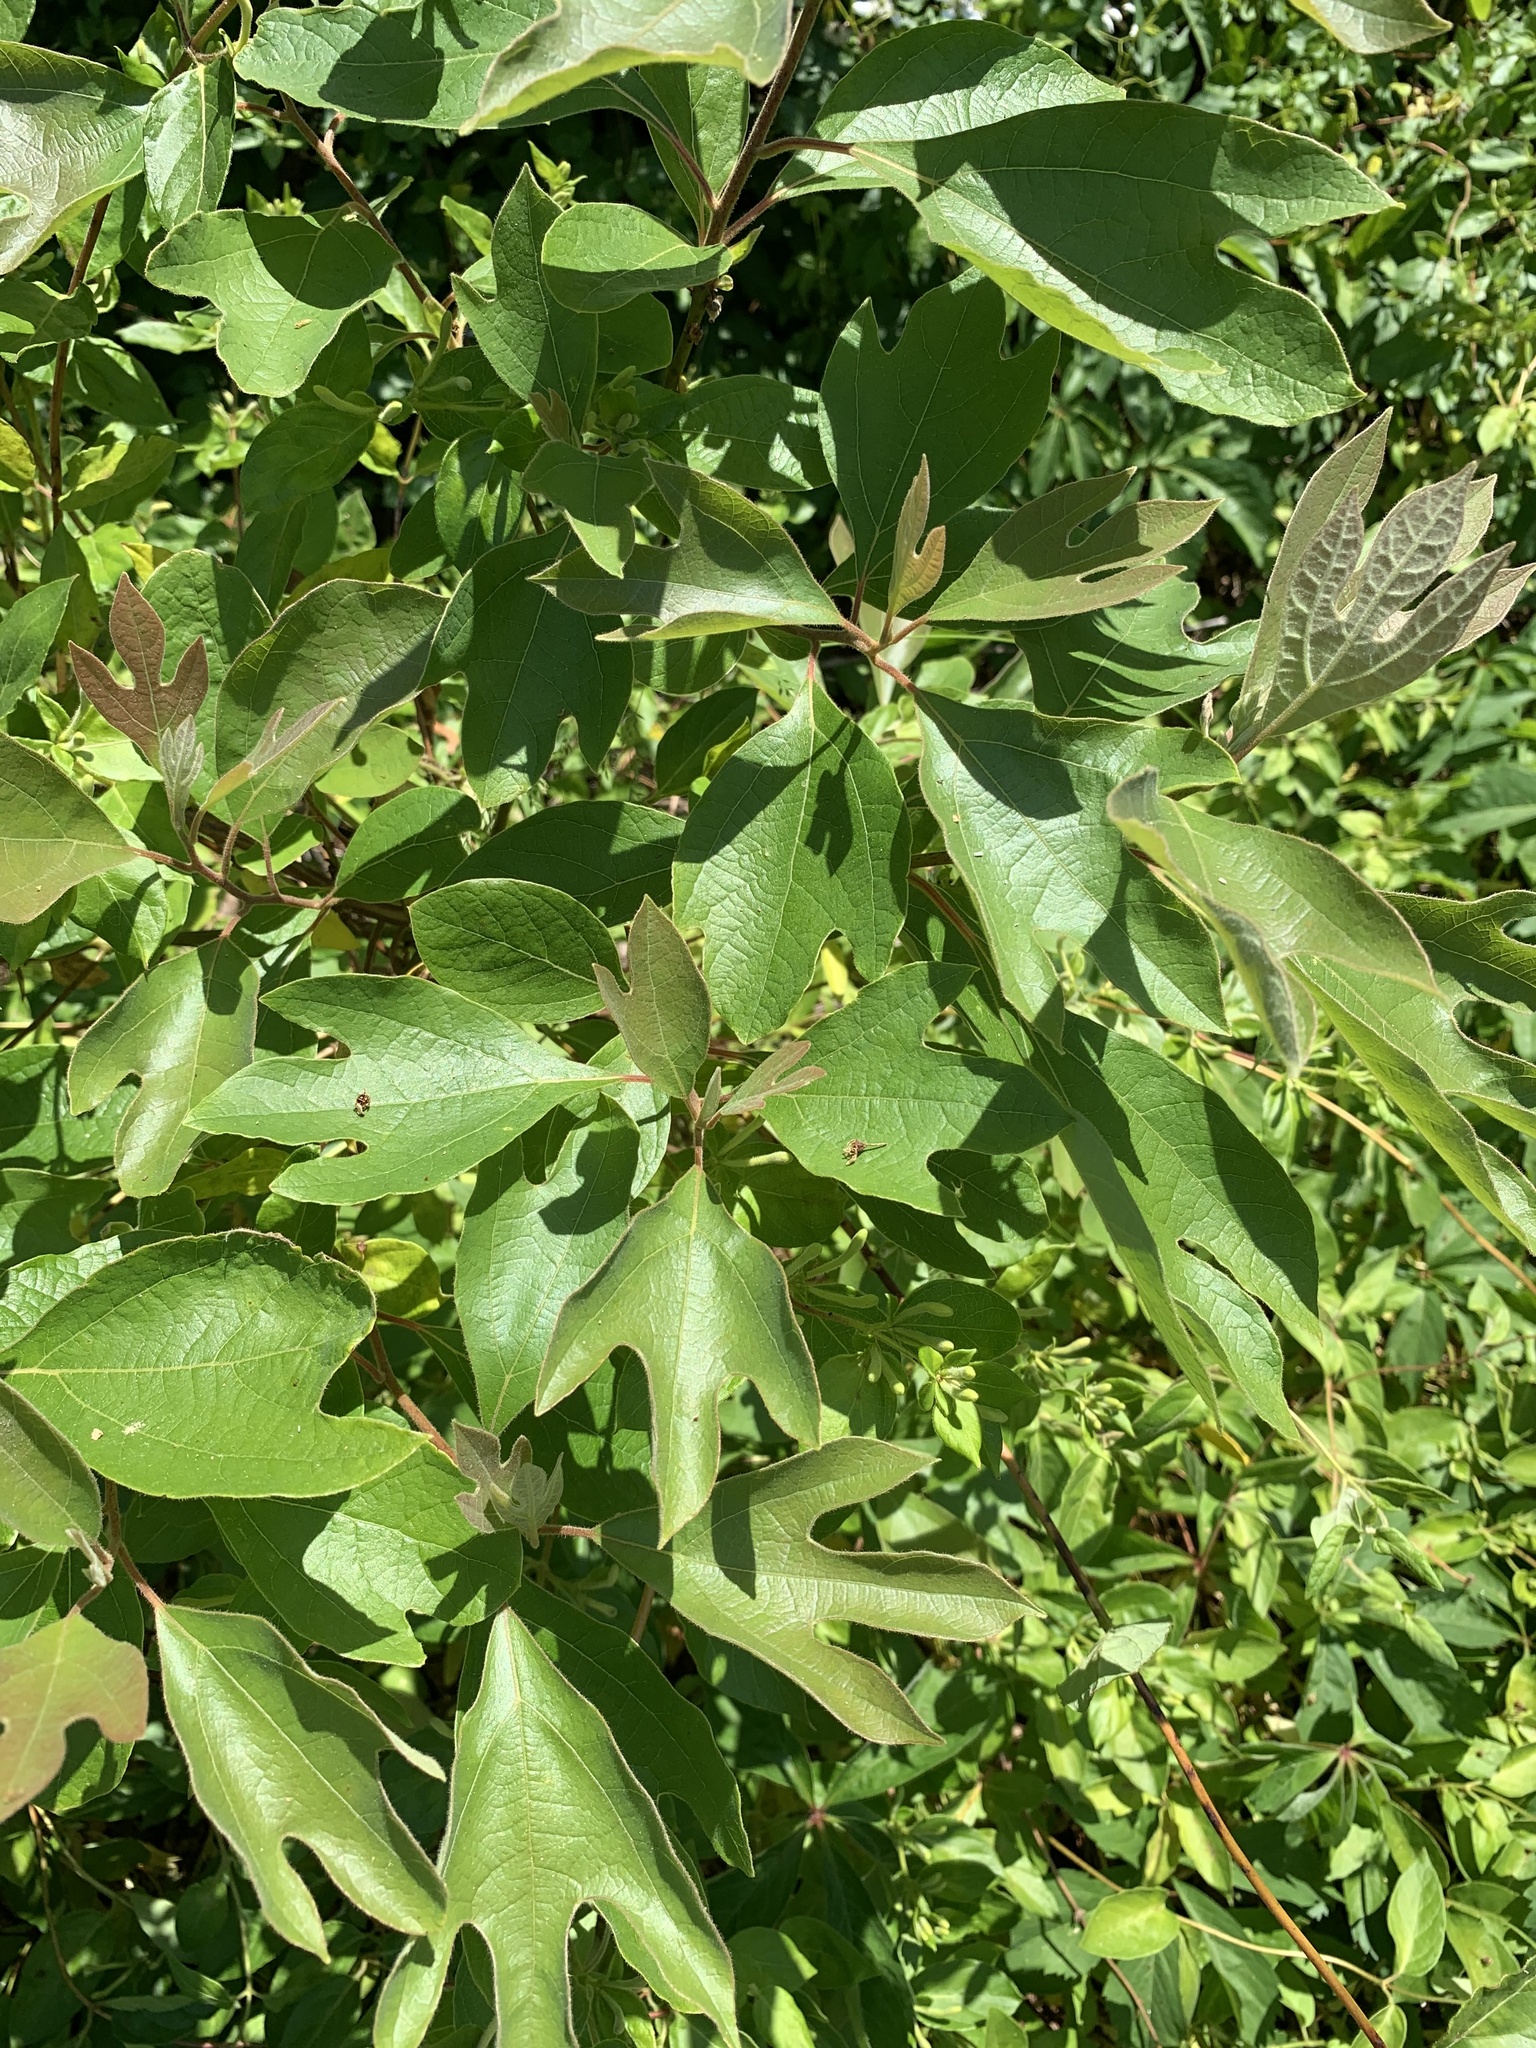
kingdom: Plantae
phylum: Tracheophyta
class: Magnoliopsida
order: Laurales
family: Lauraceae
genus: Sassafras
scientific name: Sassafras albidum
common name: Sassafras
